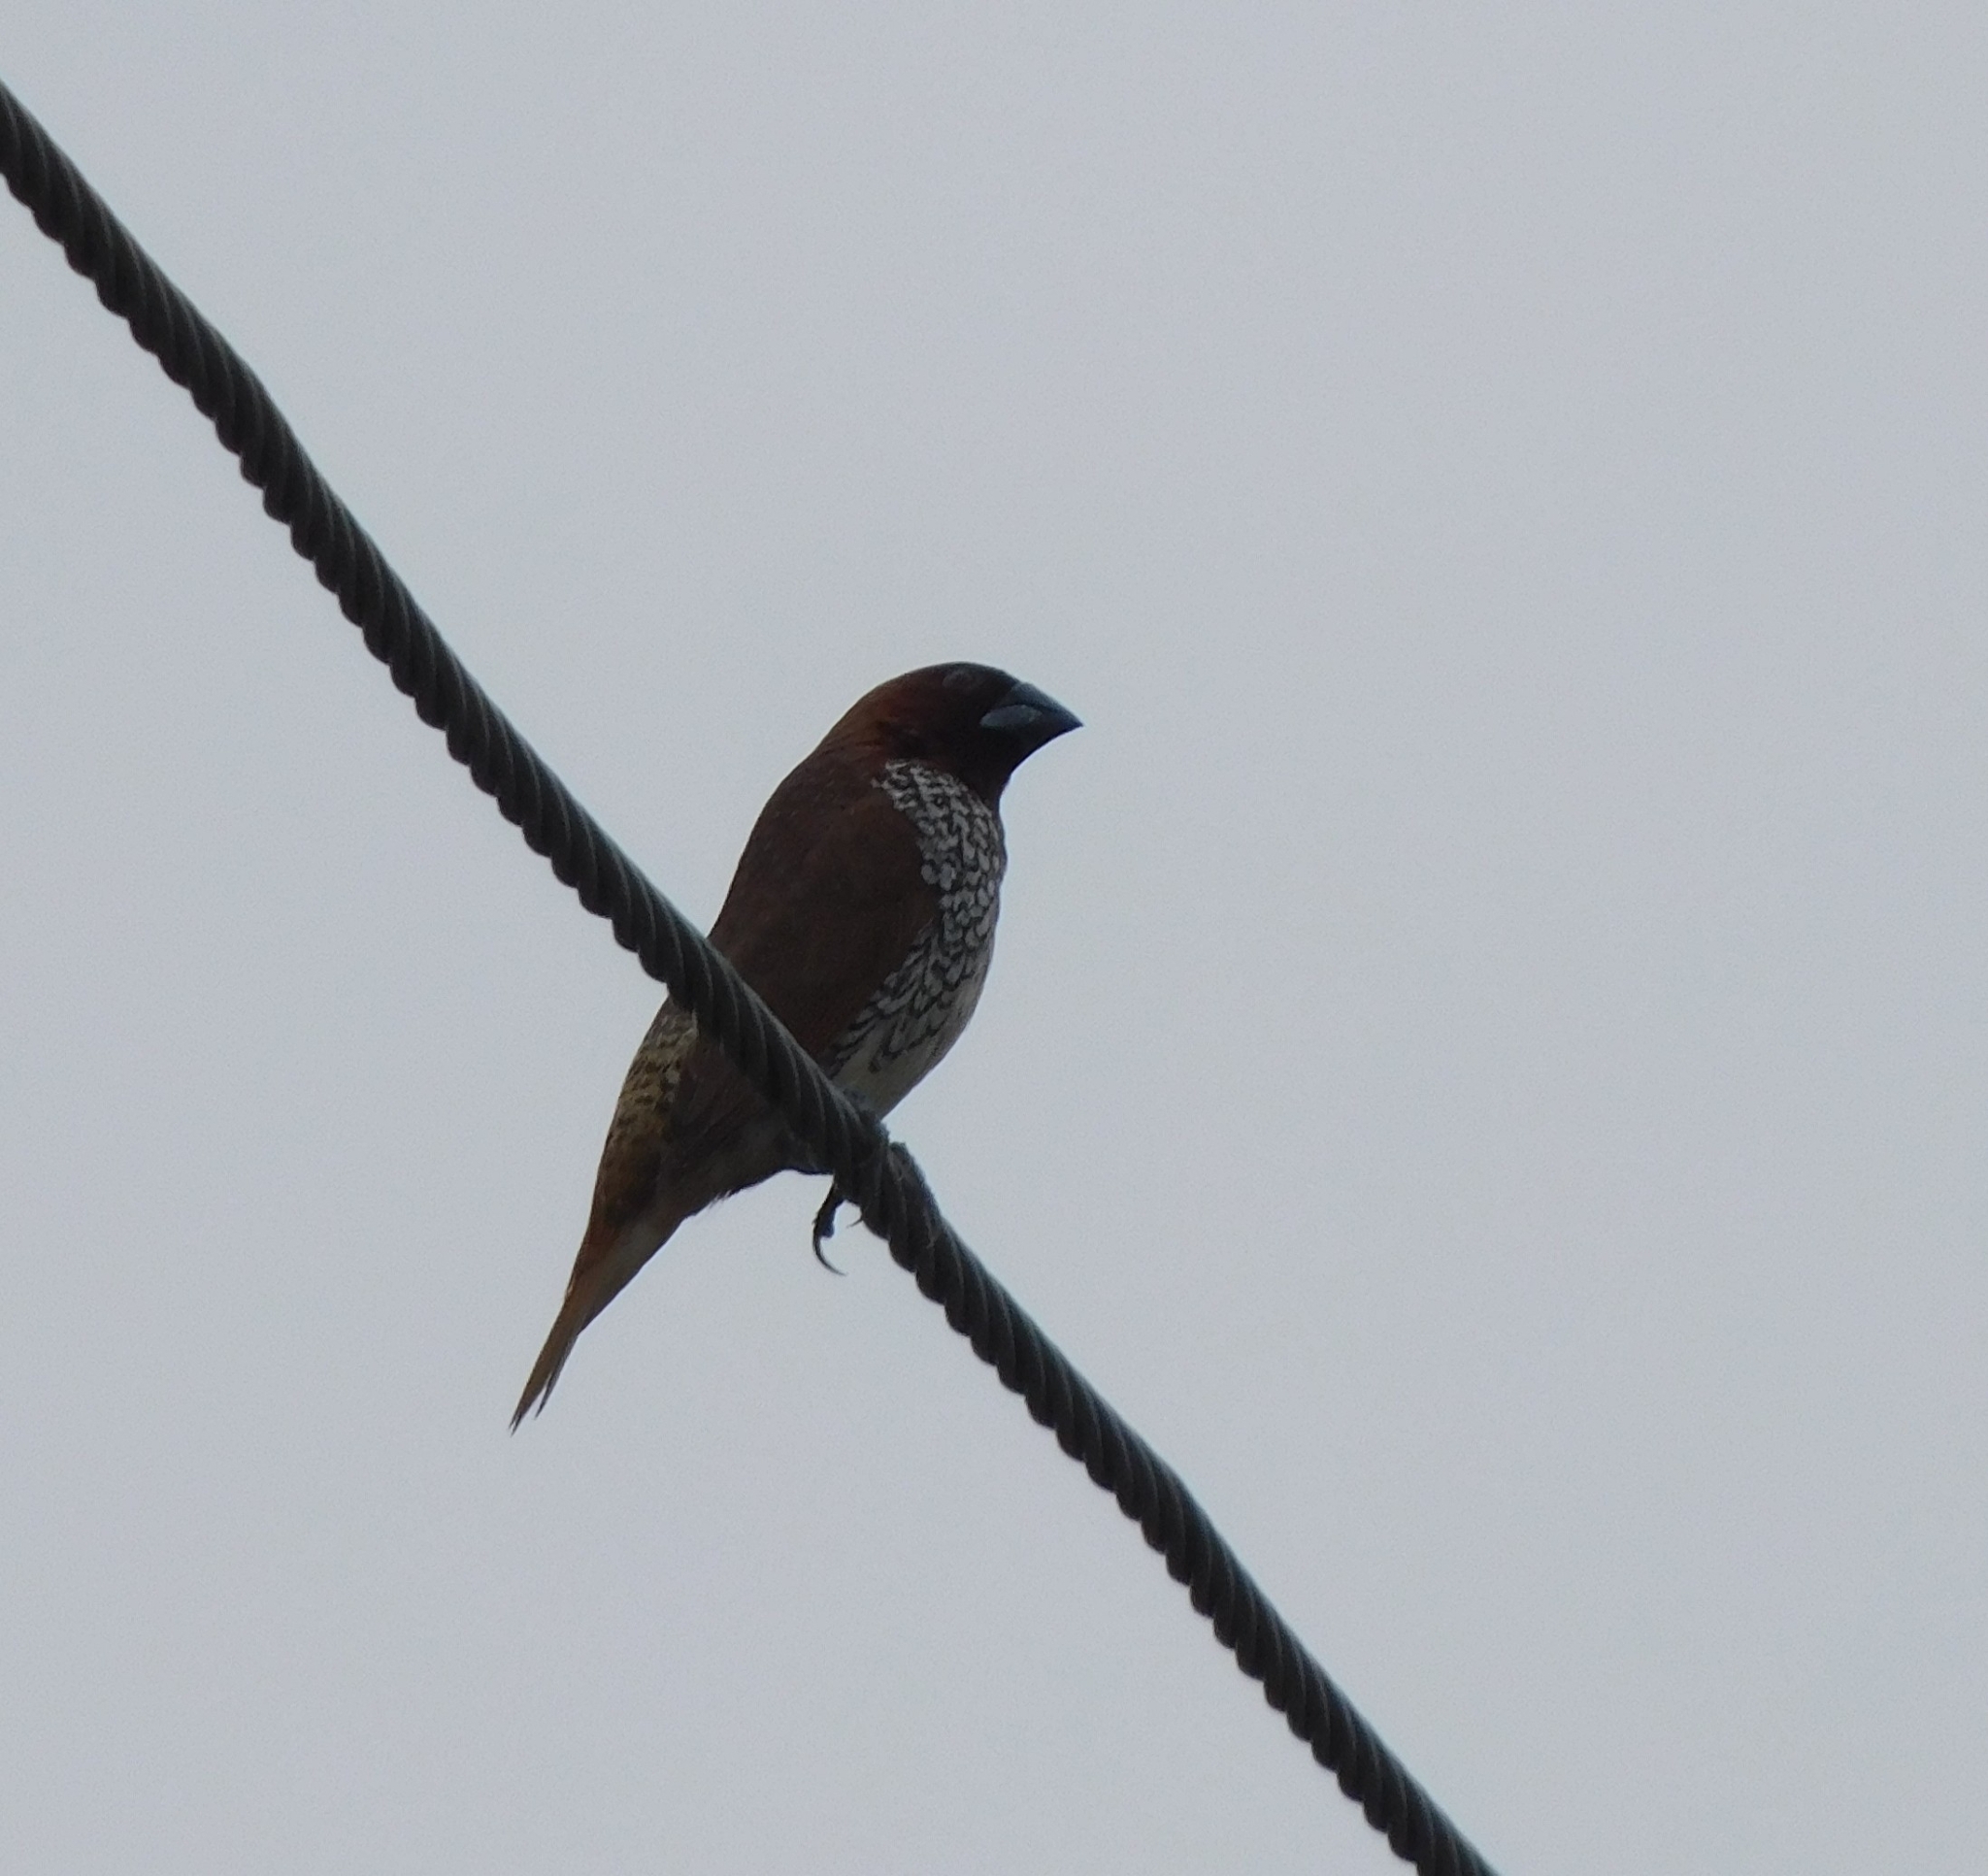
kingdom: Animalia
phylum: Chordata
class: Aves
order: Passeriformes
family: Estrildidae
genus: Lonchura
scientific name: Lonchura punctulata
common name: Scaly-breasted munia
